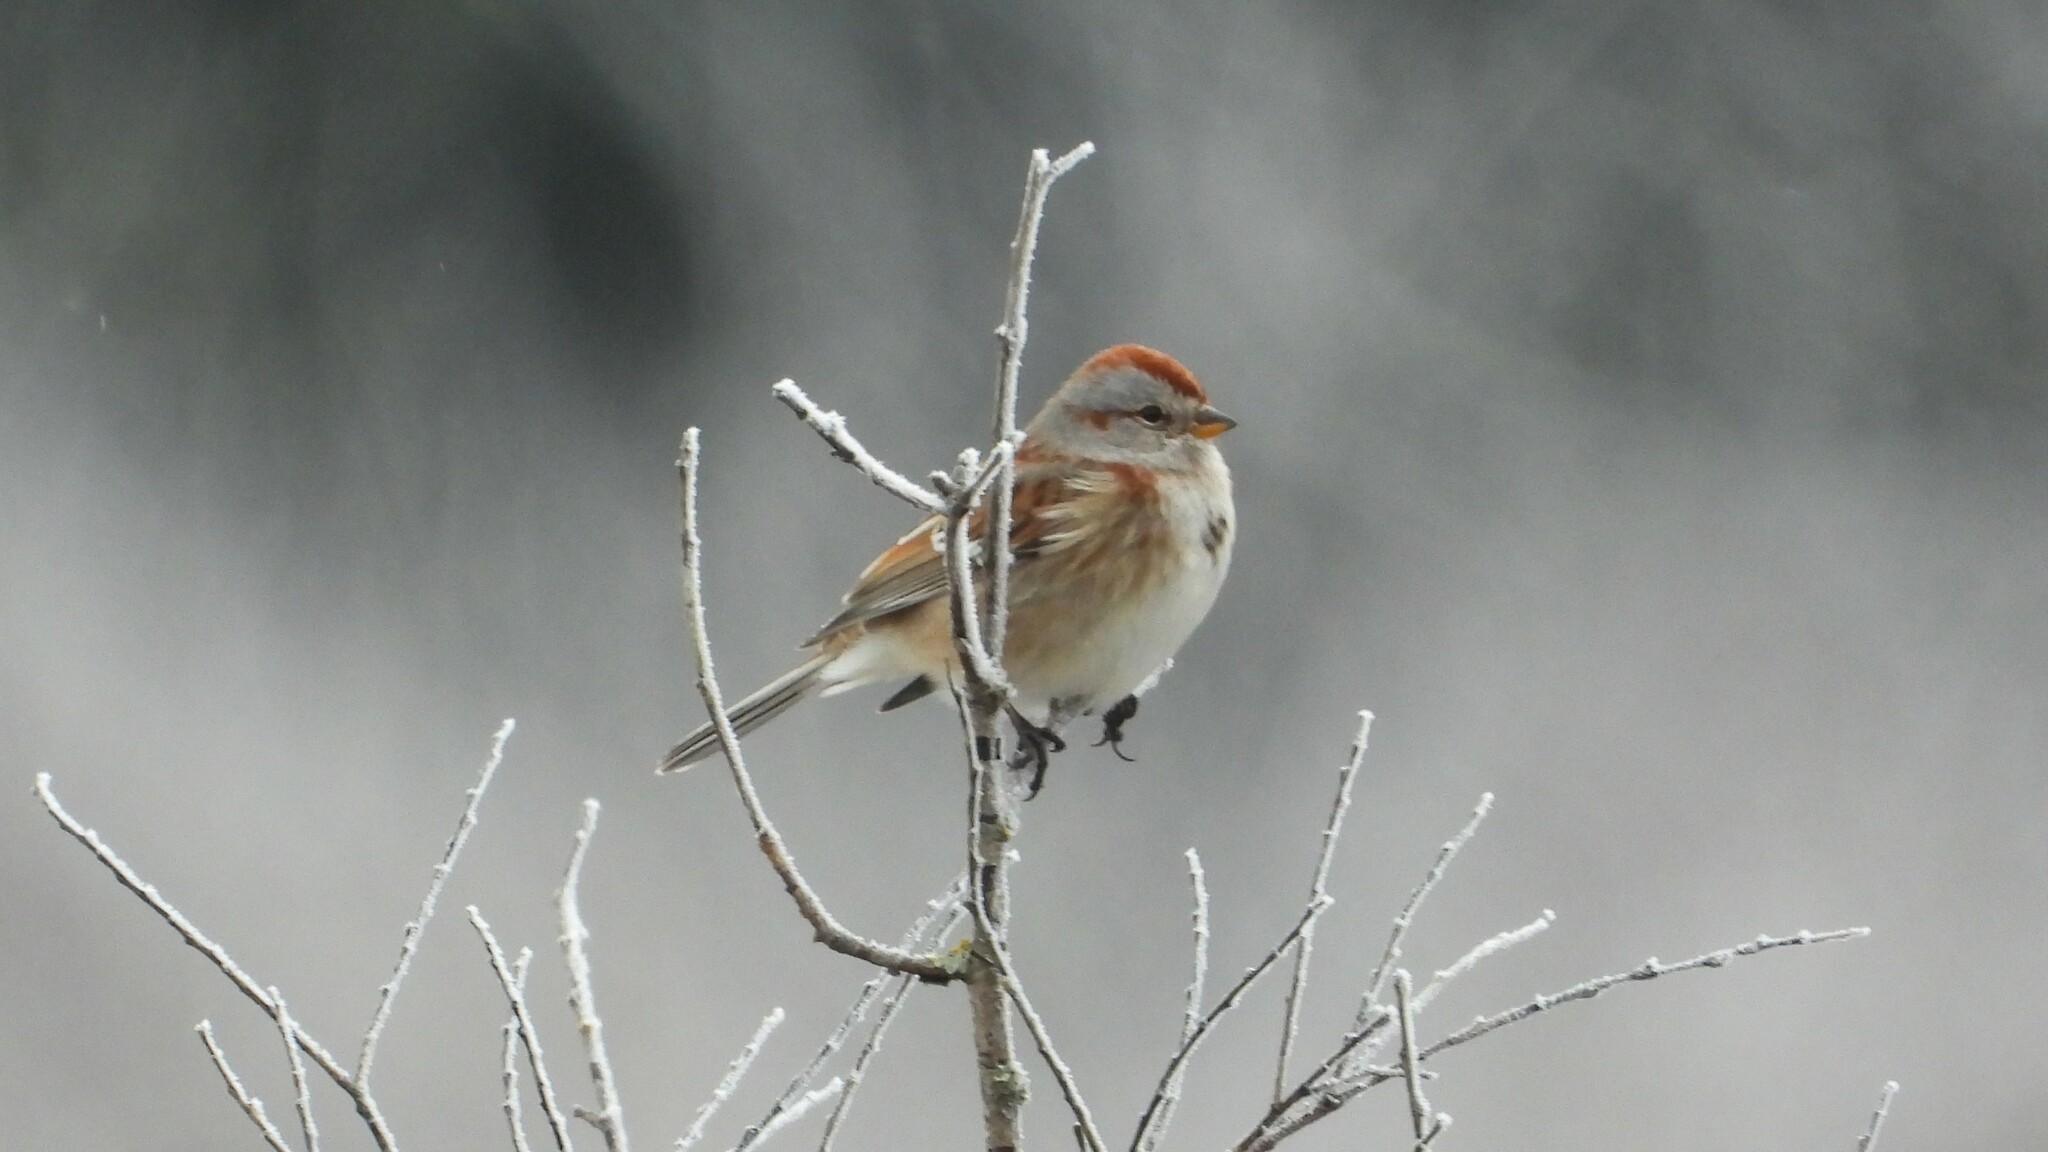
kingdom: Animalia
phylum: Chordata
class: Aves
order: Passeriformes
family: Passerellidae
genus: Spizelloides
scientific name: Spizelloides arborea
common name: American tree sparrow
